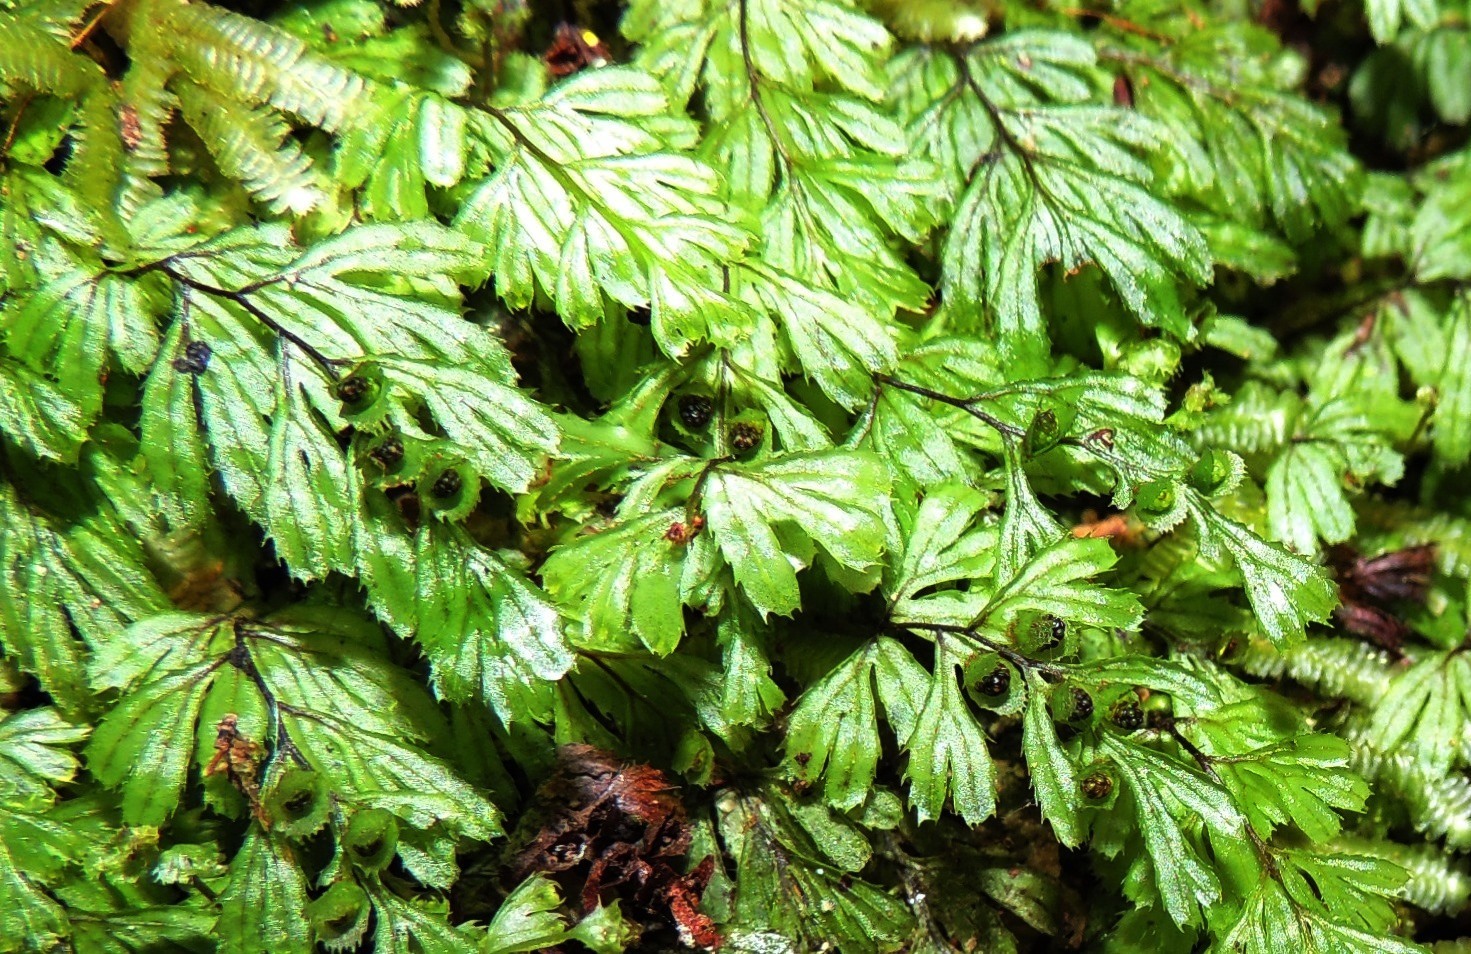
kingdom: Plantae
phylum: Tracheophyta
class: Polypodiopsida
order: Hymenophyllales
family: Hymenophyllaceae
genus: Hymenophyllum
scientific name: Hymenophyllum revolutum
